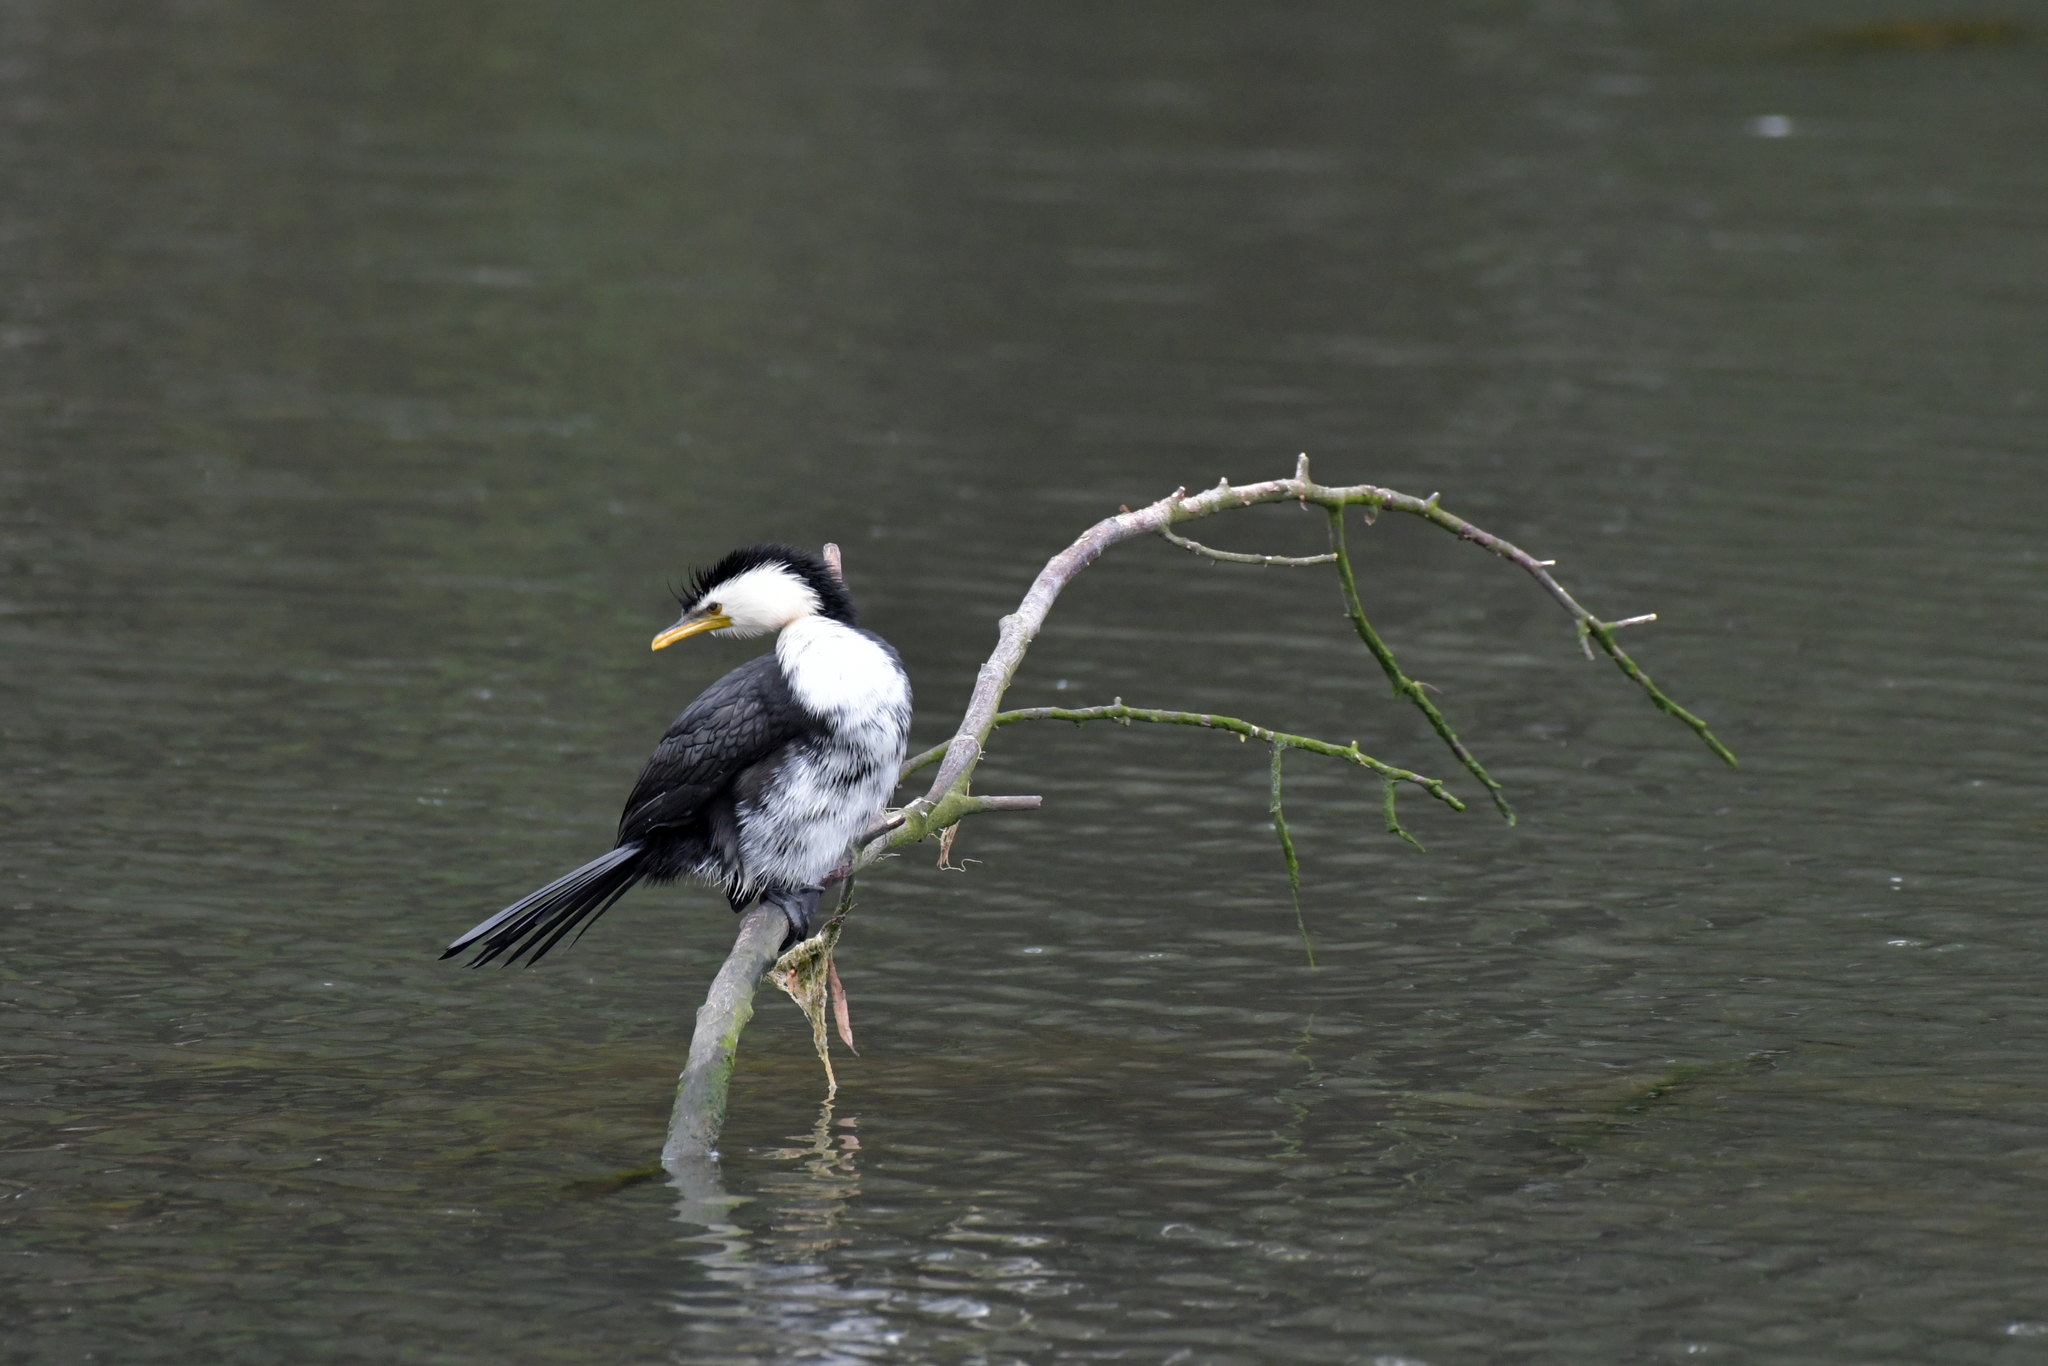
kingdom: Animalia
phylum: Chordata
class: Aves
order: Suliformes
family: Phalacrocoracidae
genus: Microcarbo
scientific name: Microcarbo melanoleucos
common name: Little pied cormorant
